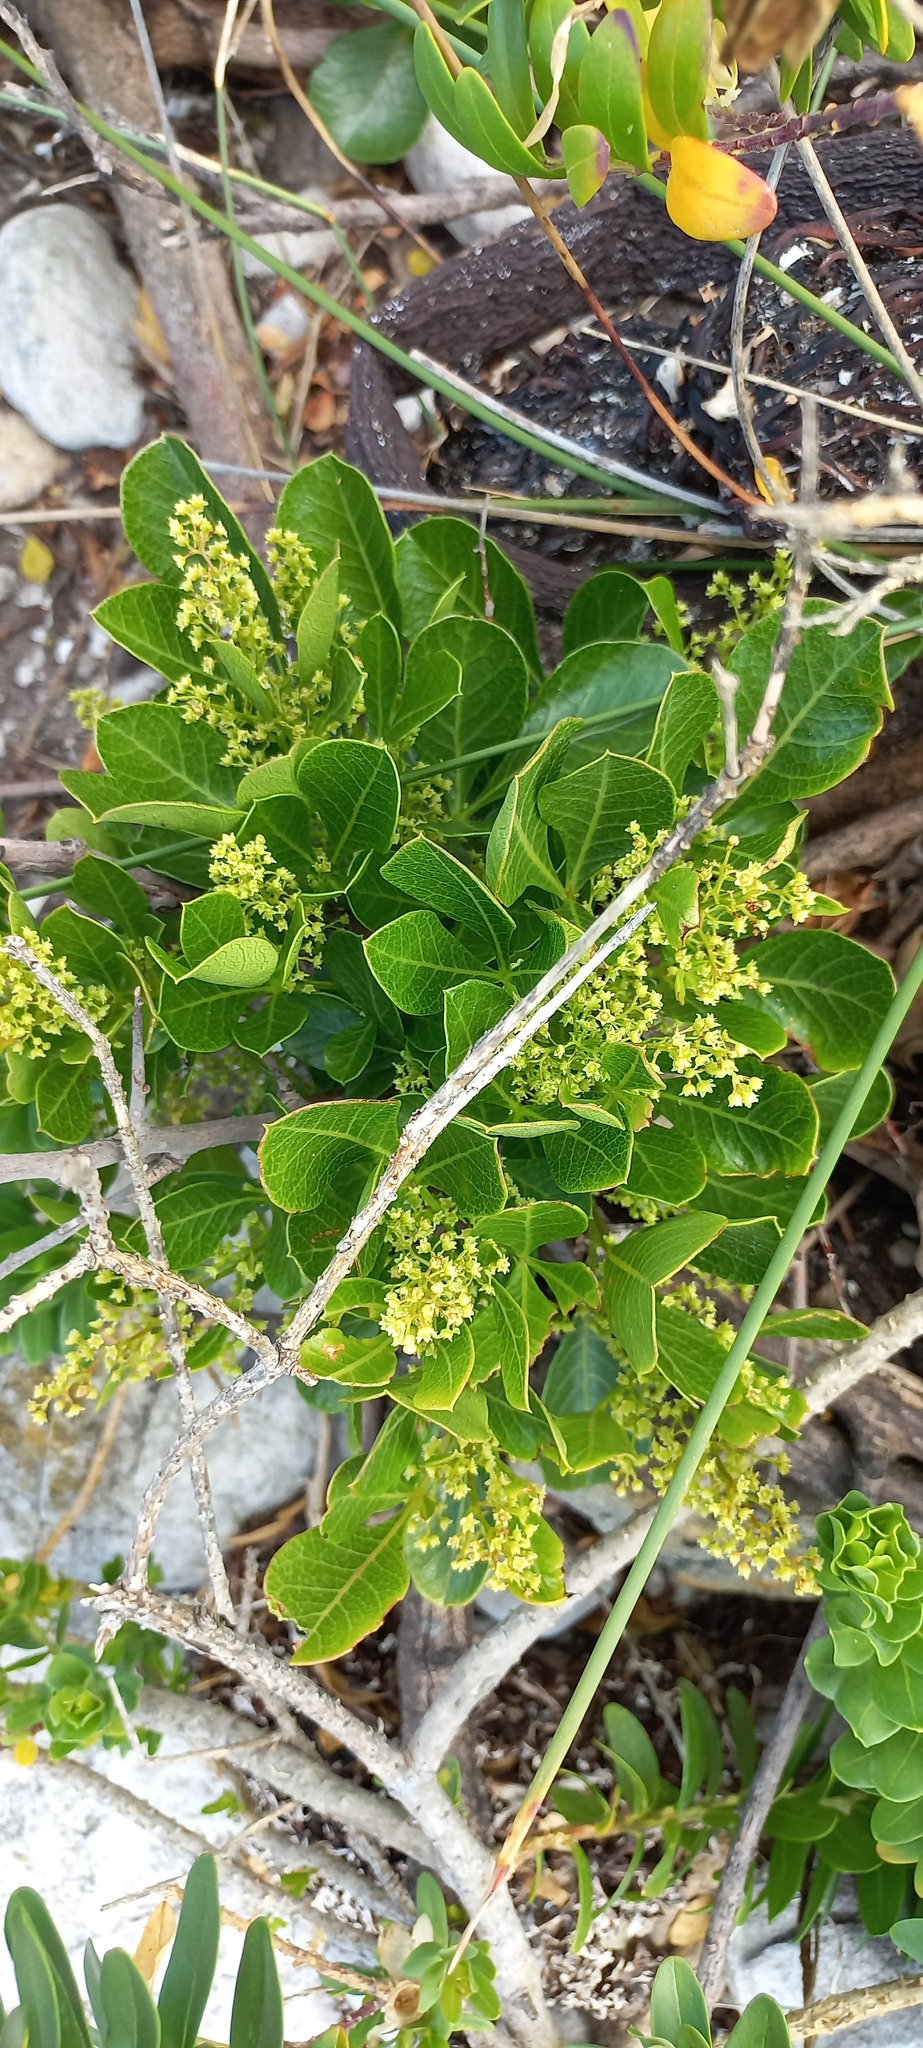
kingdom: Plantae
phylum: Tracheophyta
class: Magnoliopsida
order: Sapindales
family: Anacardiaceae
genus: Searsia
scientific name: Searsia laevigata
